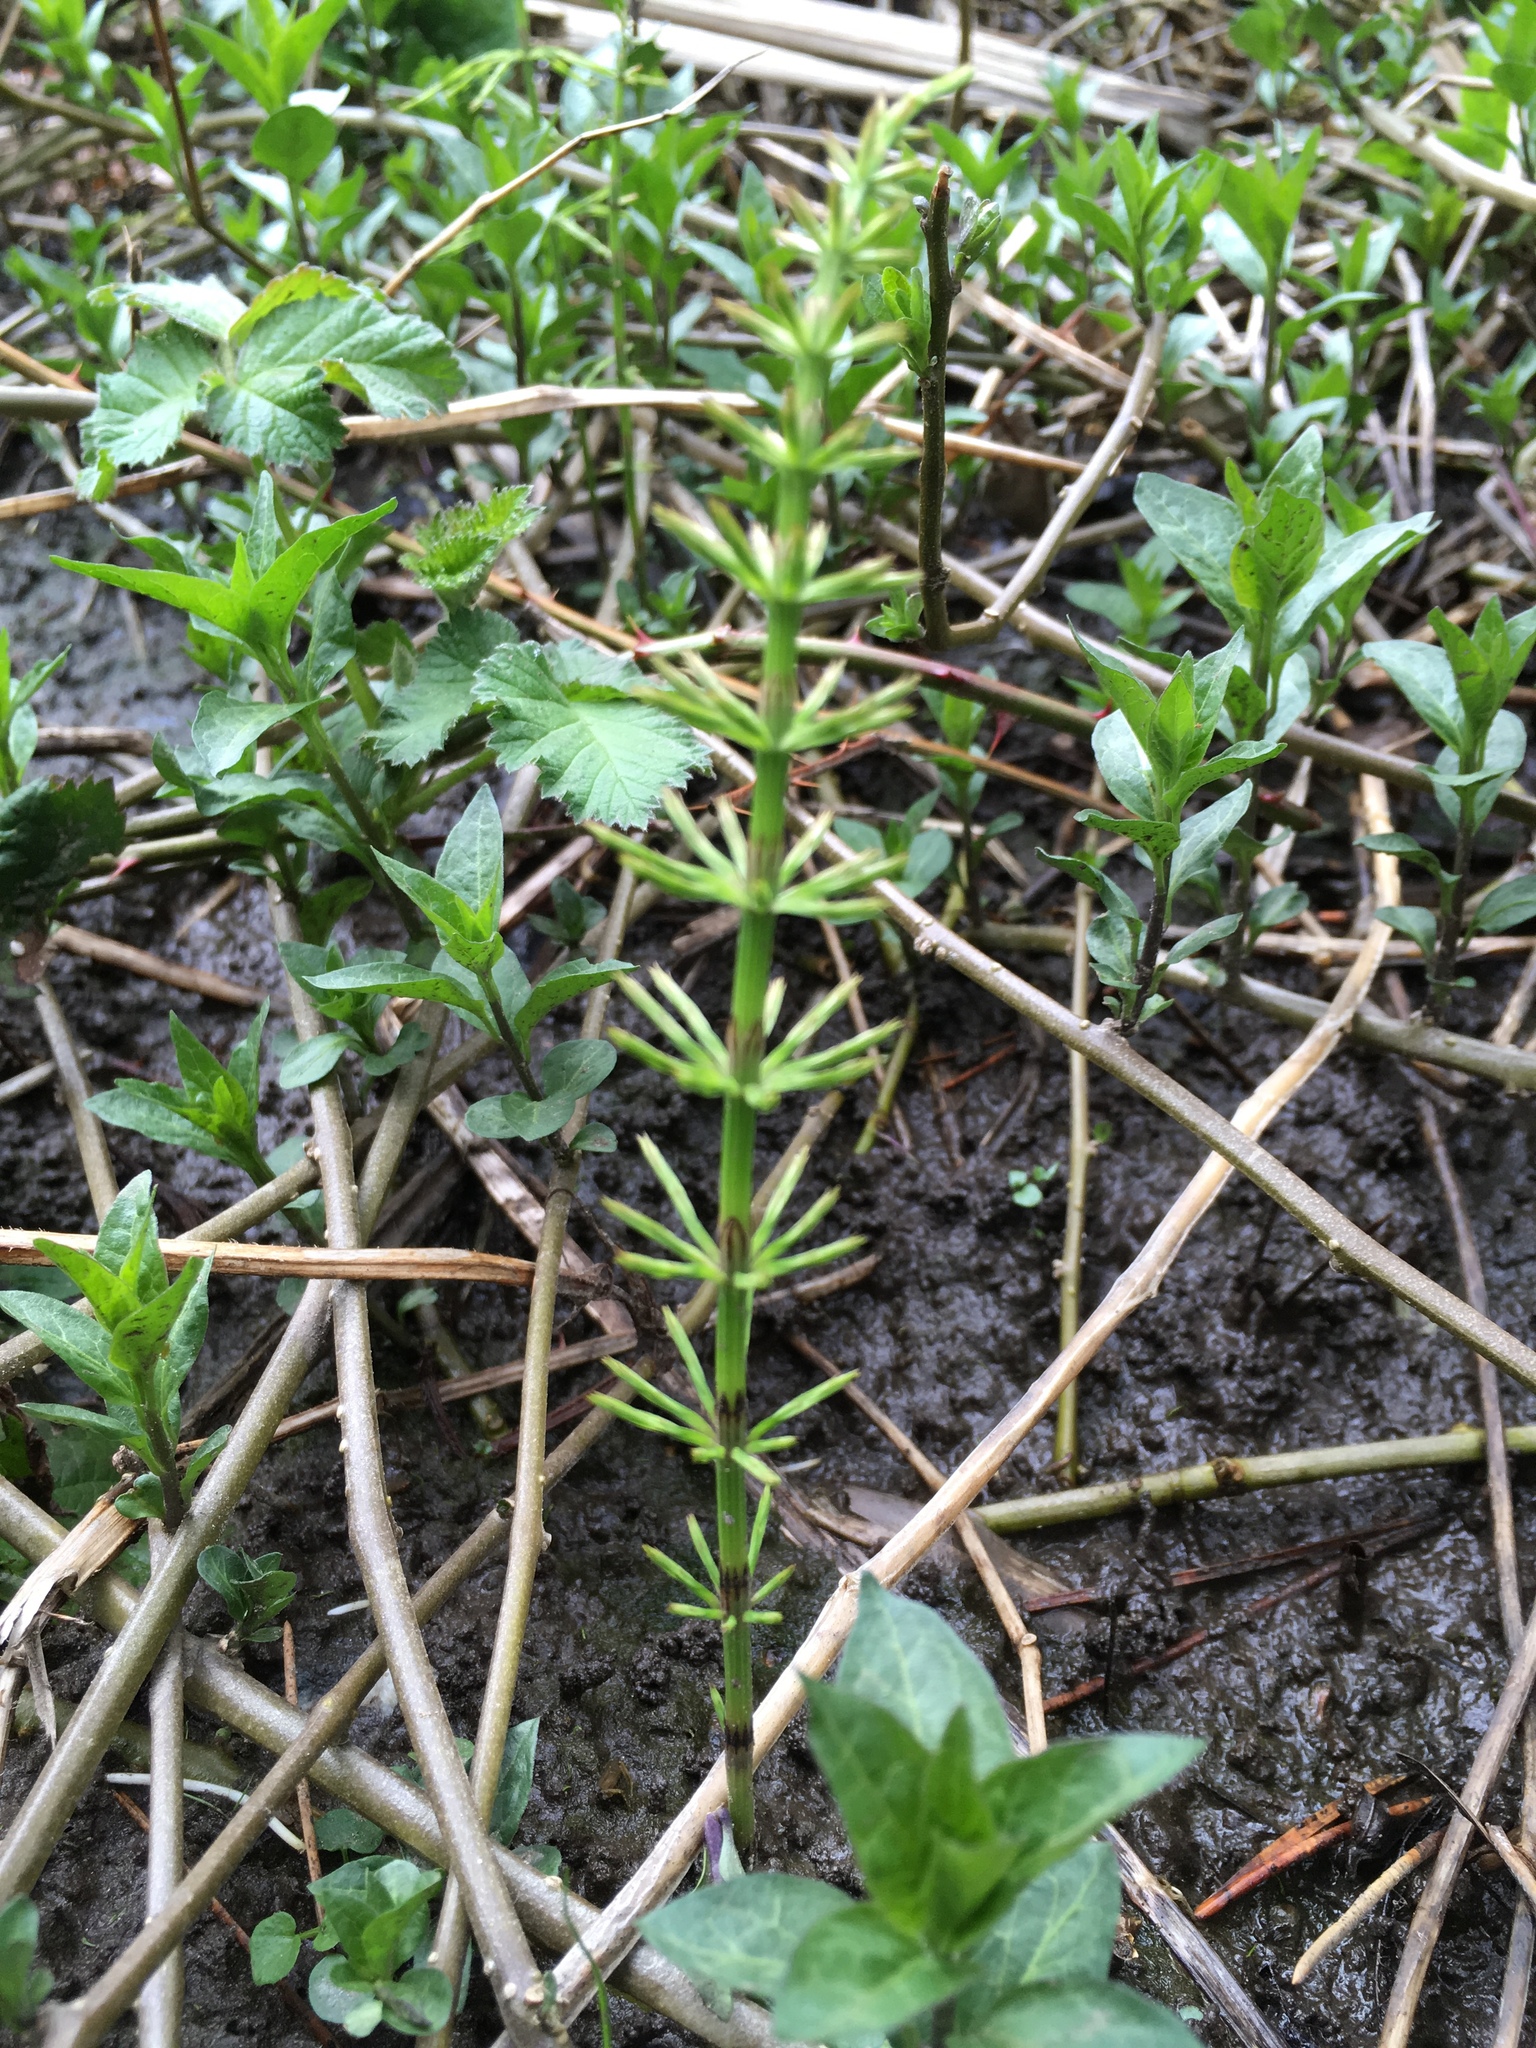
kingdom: Plantae
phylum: Tracheophyta
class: Polypodiopsida
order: Equisetales
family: Equisetaceae
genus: Equisetum
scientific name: Equisetum arvense
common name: Field horsetail
